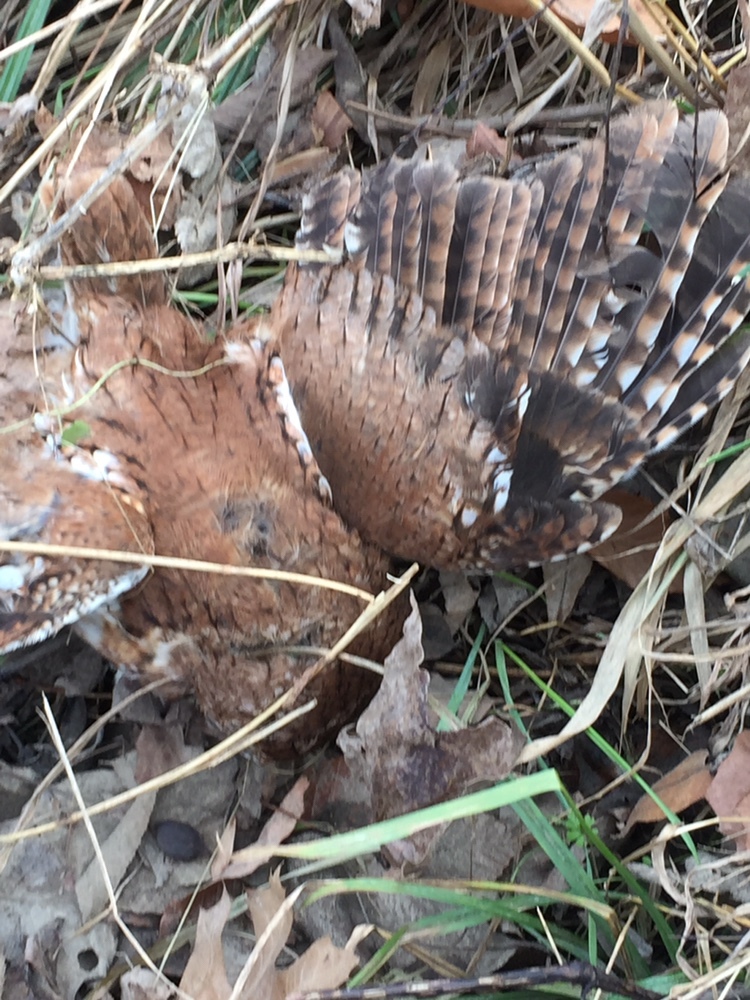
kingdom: Animalia
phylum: Chordata
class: Aves
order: Strigiformes
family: Strigidae
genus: Megascops
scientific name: Megascops asio
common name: Eastern screech-owl
